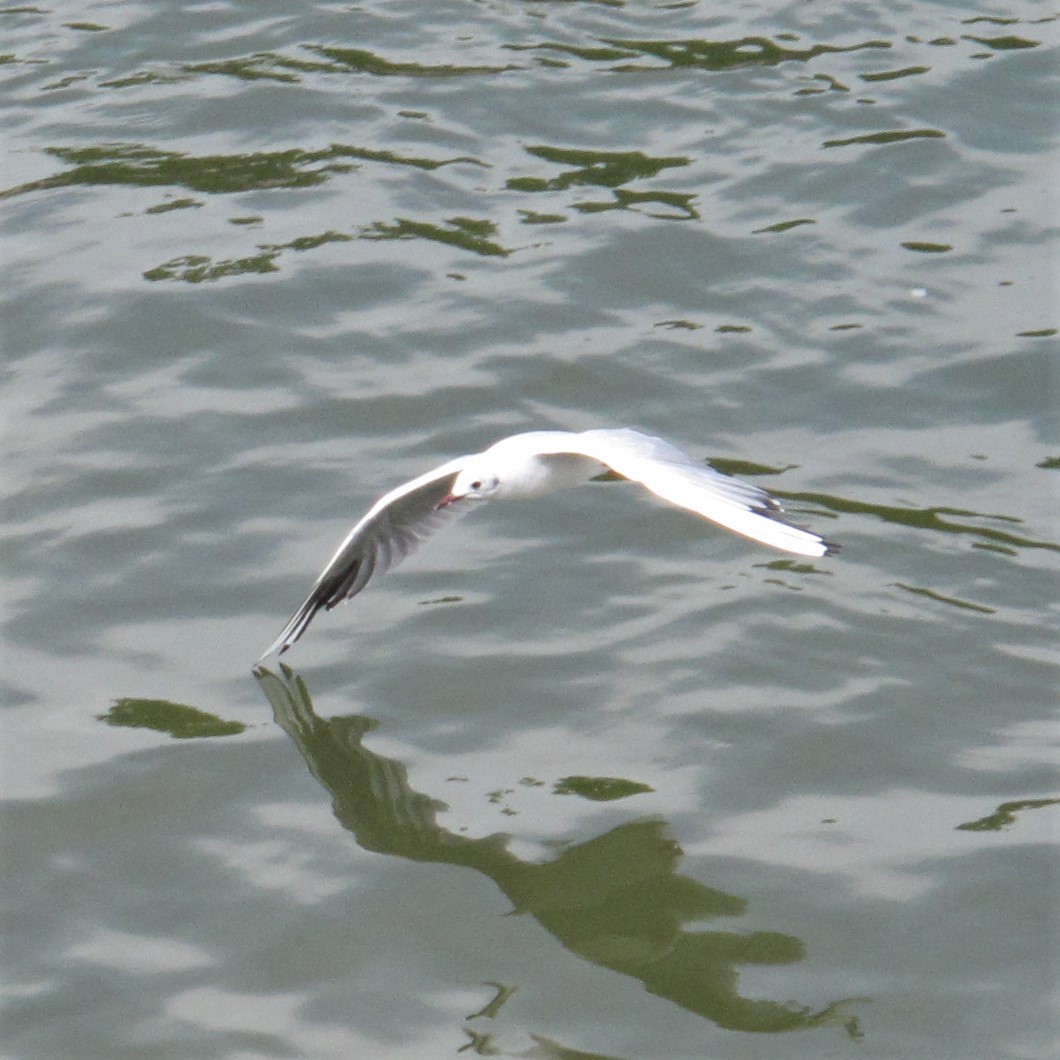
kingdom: Animalia
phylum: Chordata
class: Aves
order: Charadriiformes
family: Laridae
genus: Chroicocephalus
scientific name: Chroicocephalus ridibundus
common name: Black-headed gull
